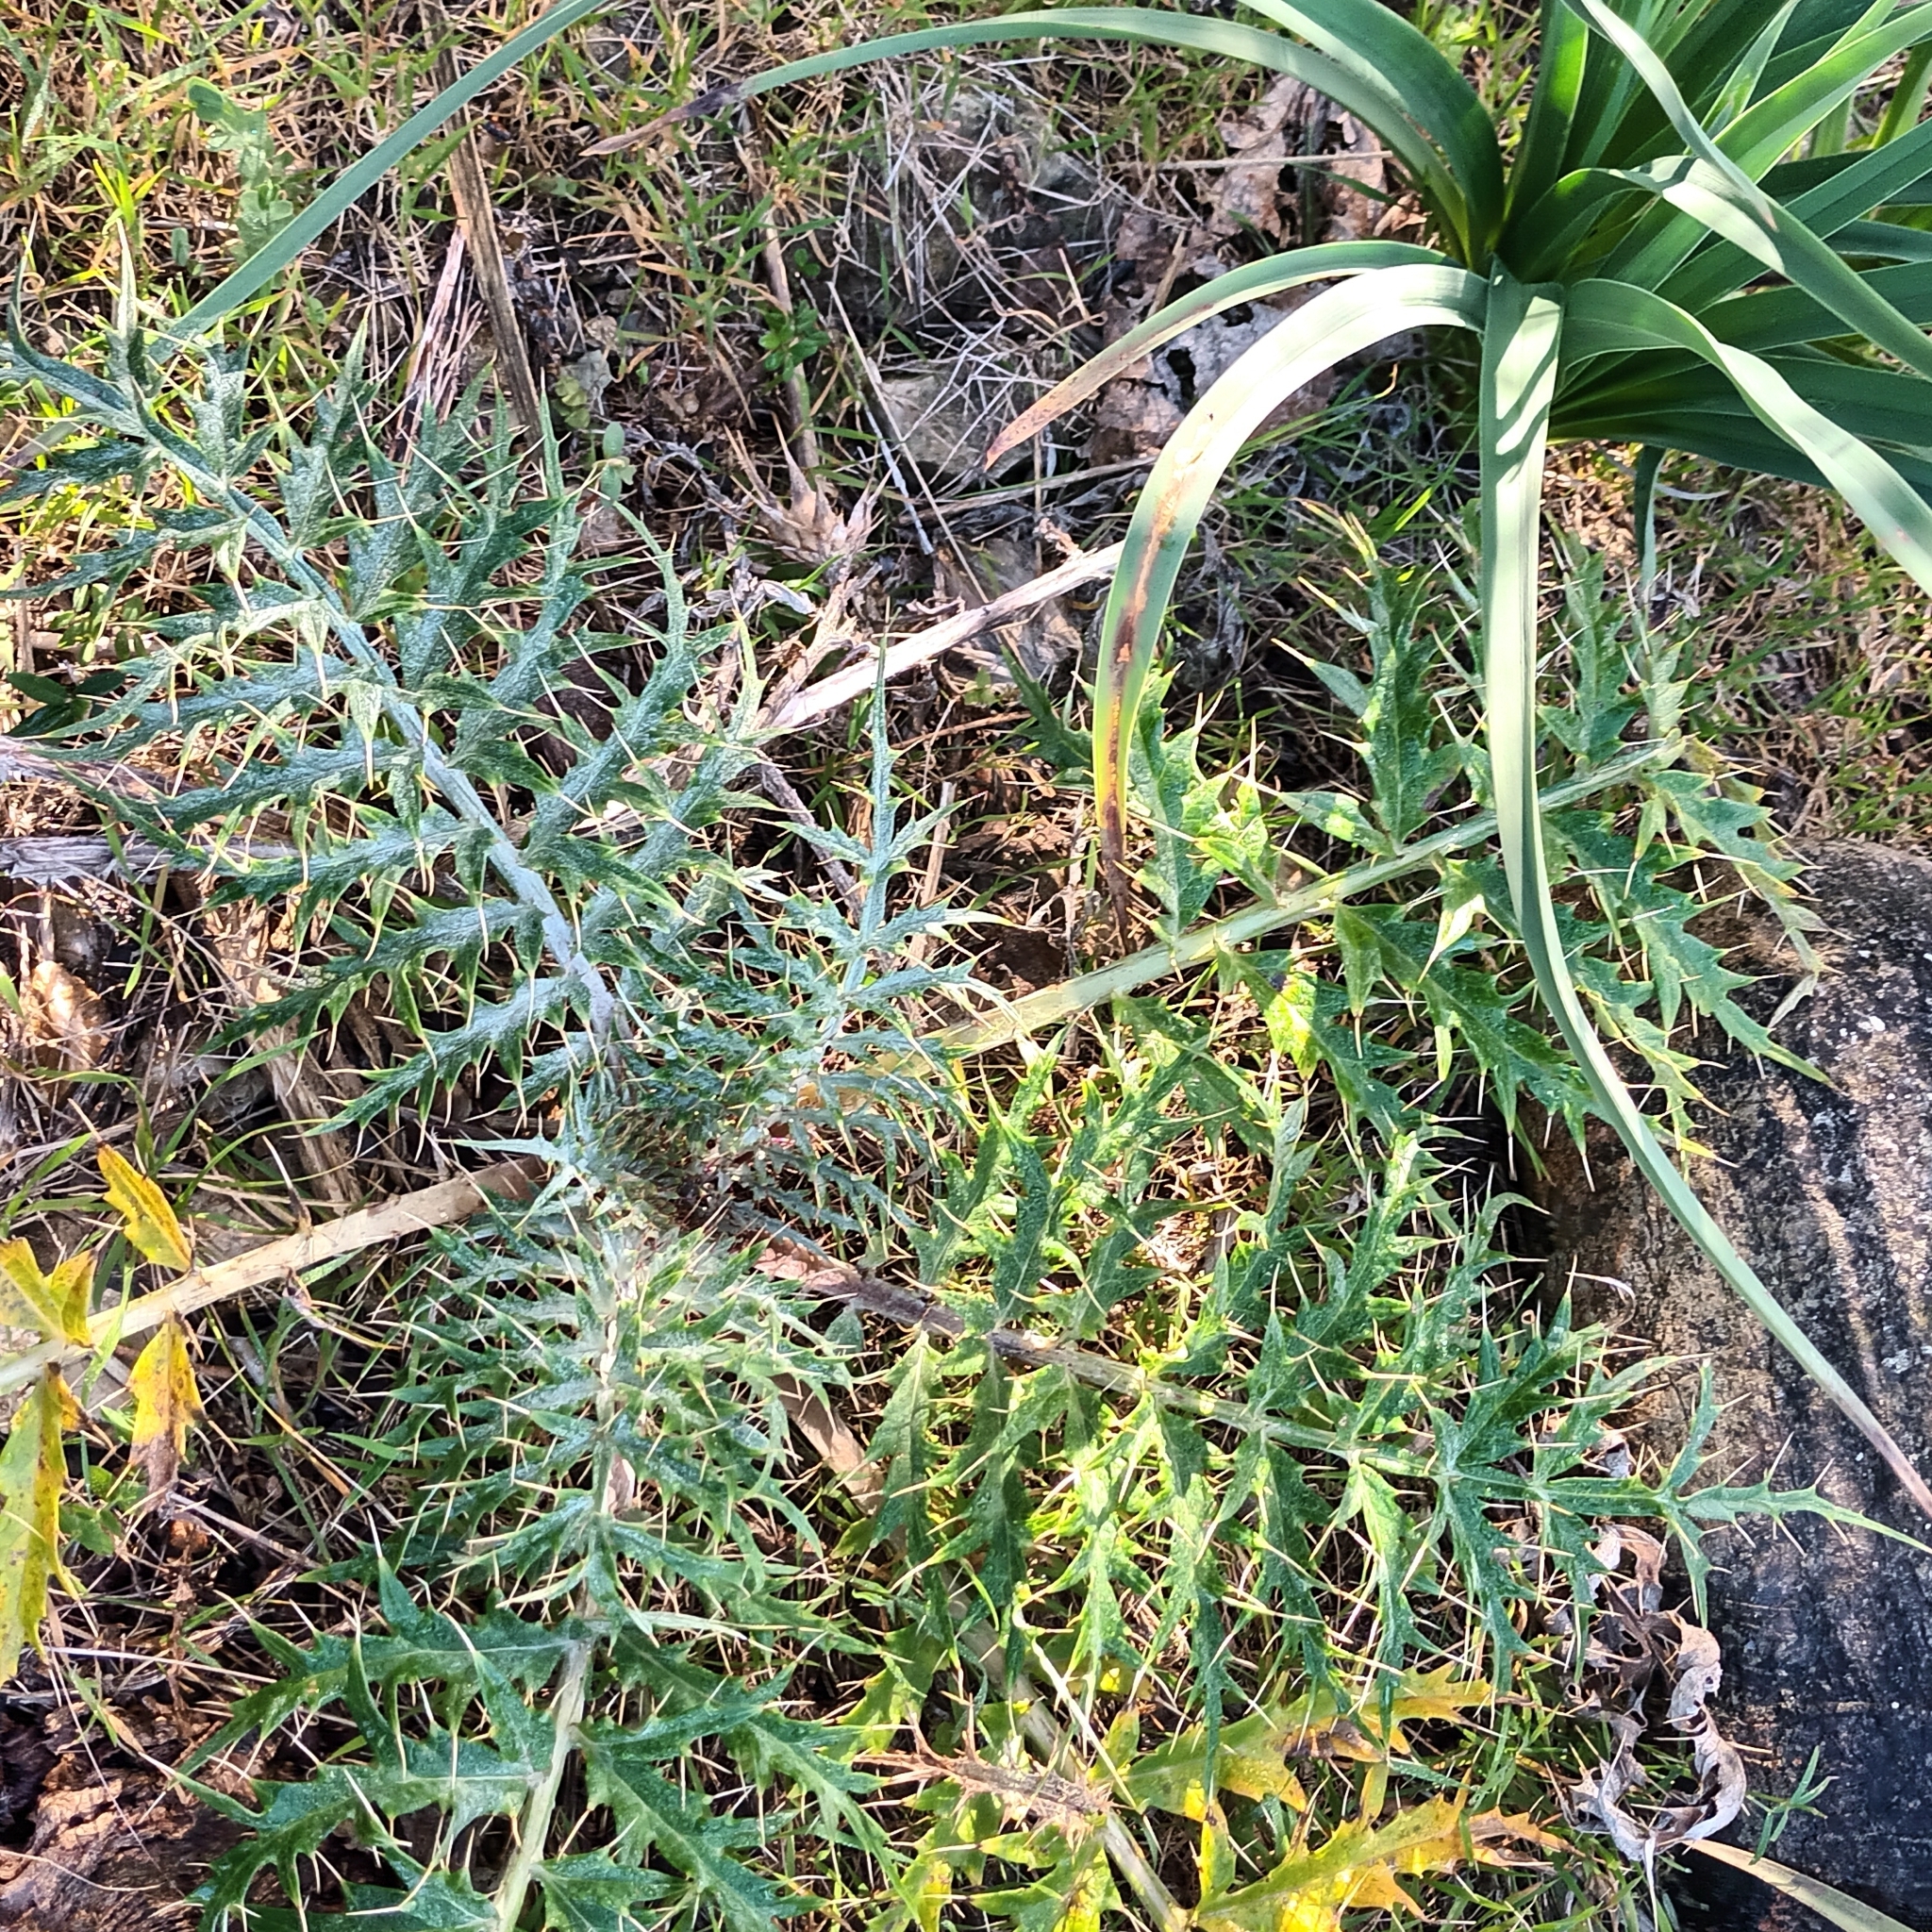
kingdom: Plantae
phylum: Tracheophyta
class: Magnoliopsida
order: Asterales
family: Asteraceae
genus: Cynara
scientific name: Cynara cardunculus
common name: Globe artichoke
